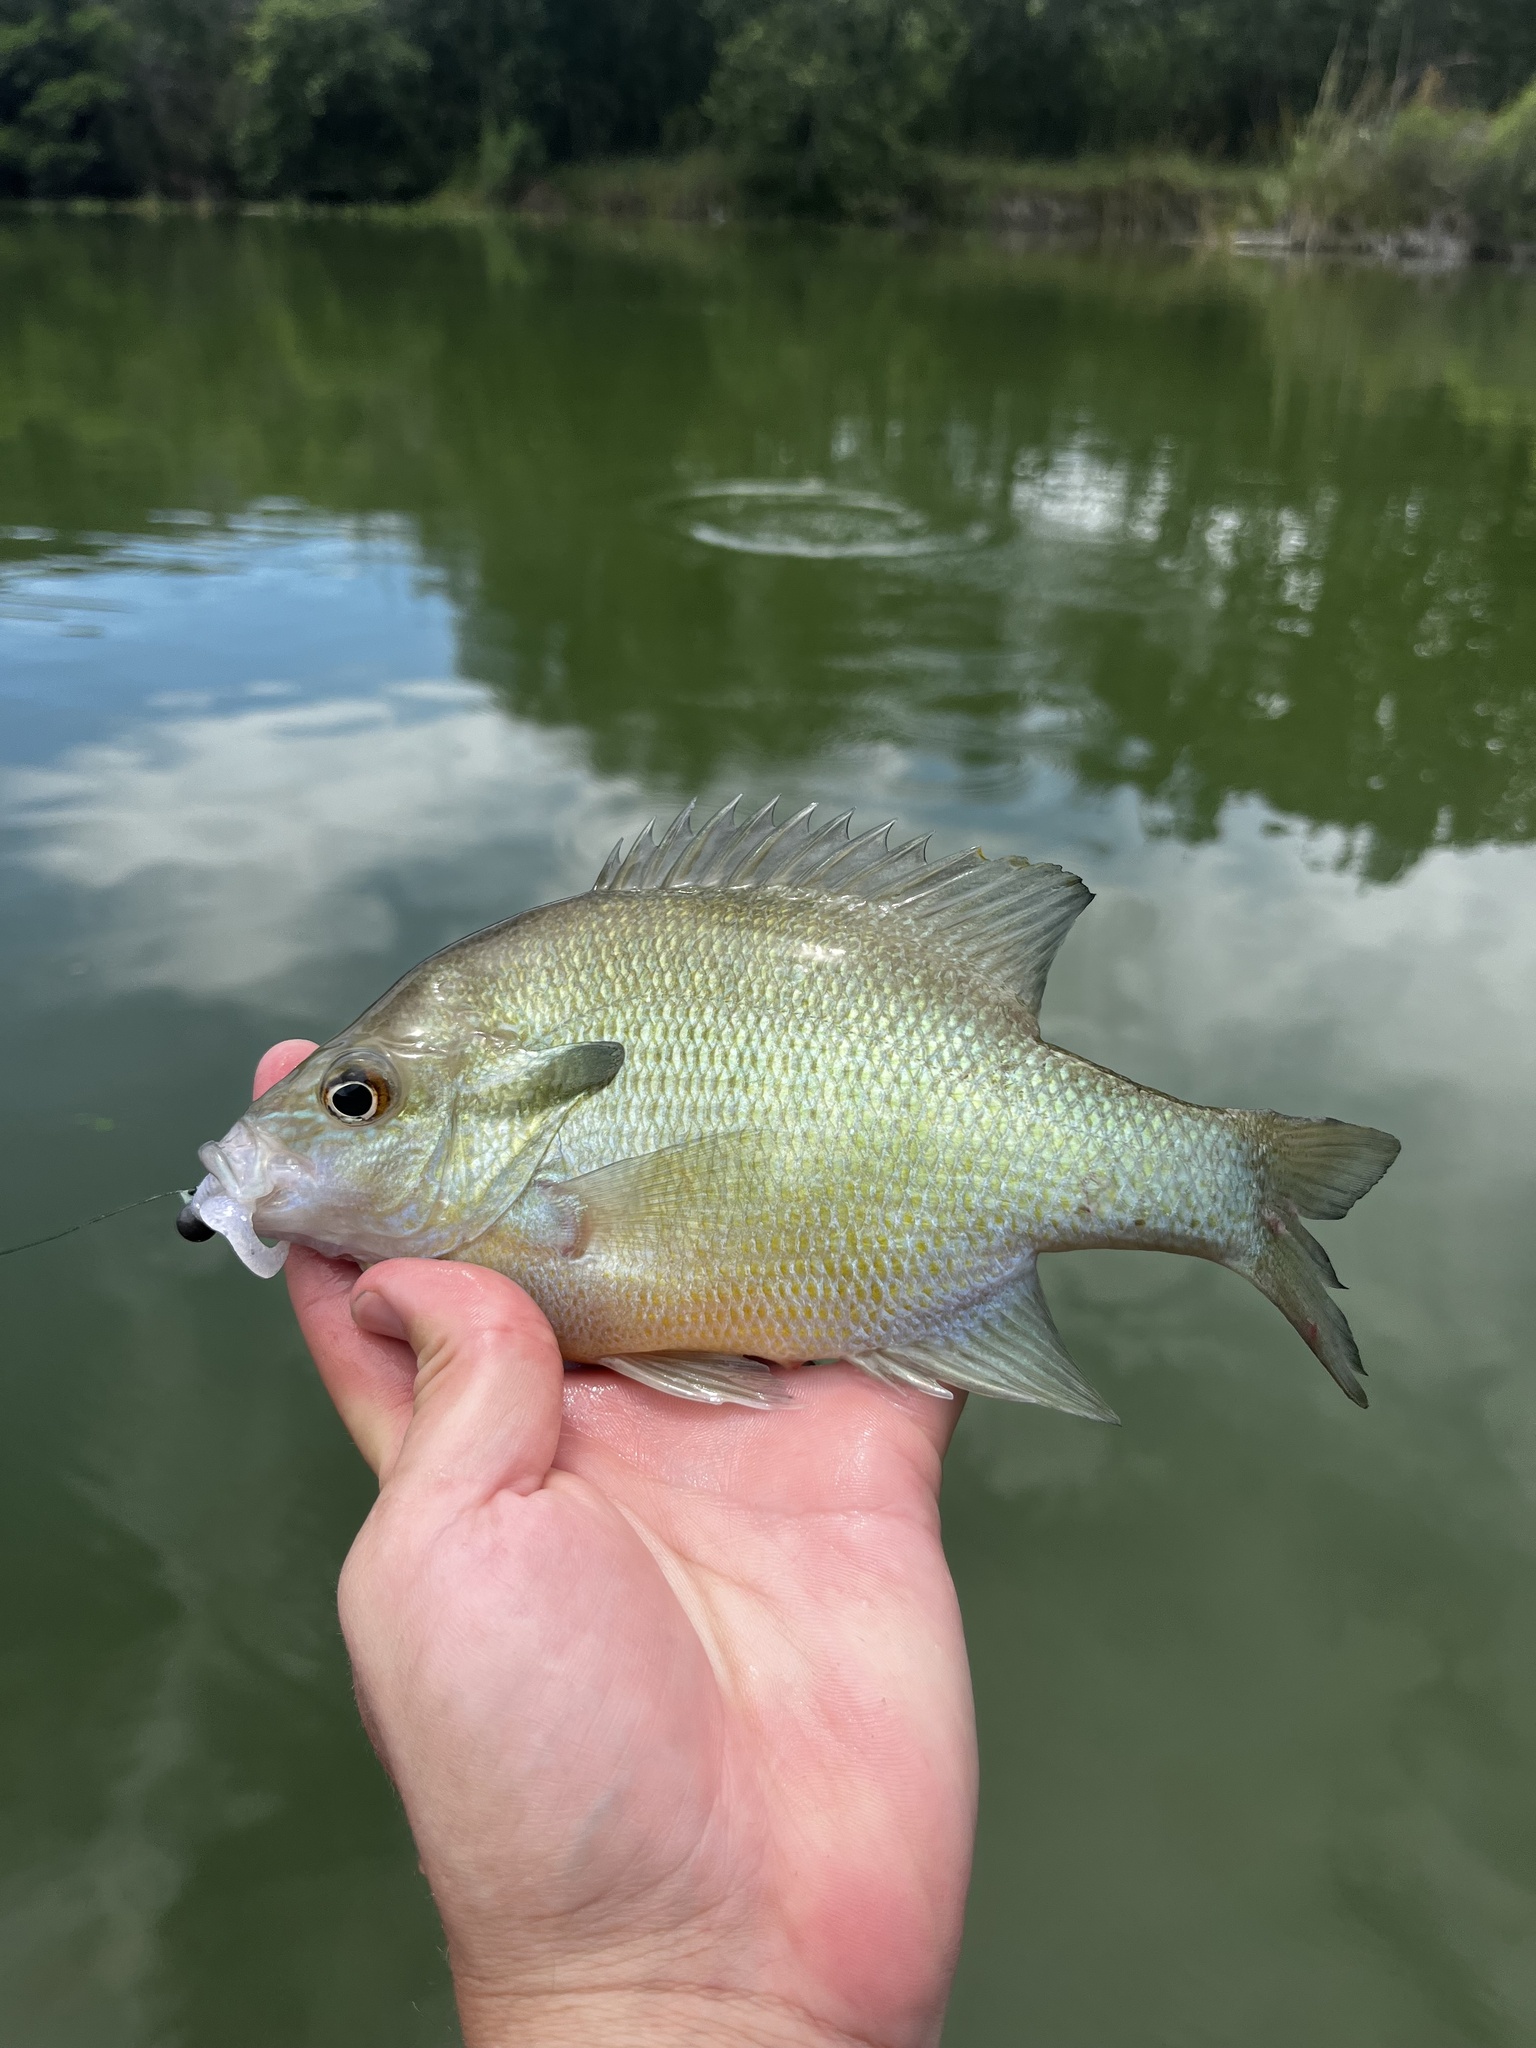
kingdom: Animalia
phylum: Chordata
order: Perciformes
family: Centrarchidae
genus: Lepomis
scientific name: Lepomis auritus
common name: Redbreast sunfish
